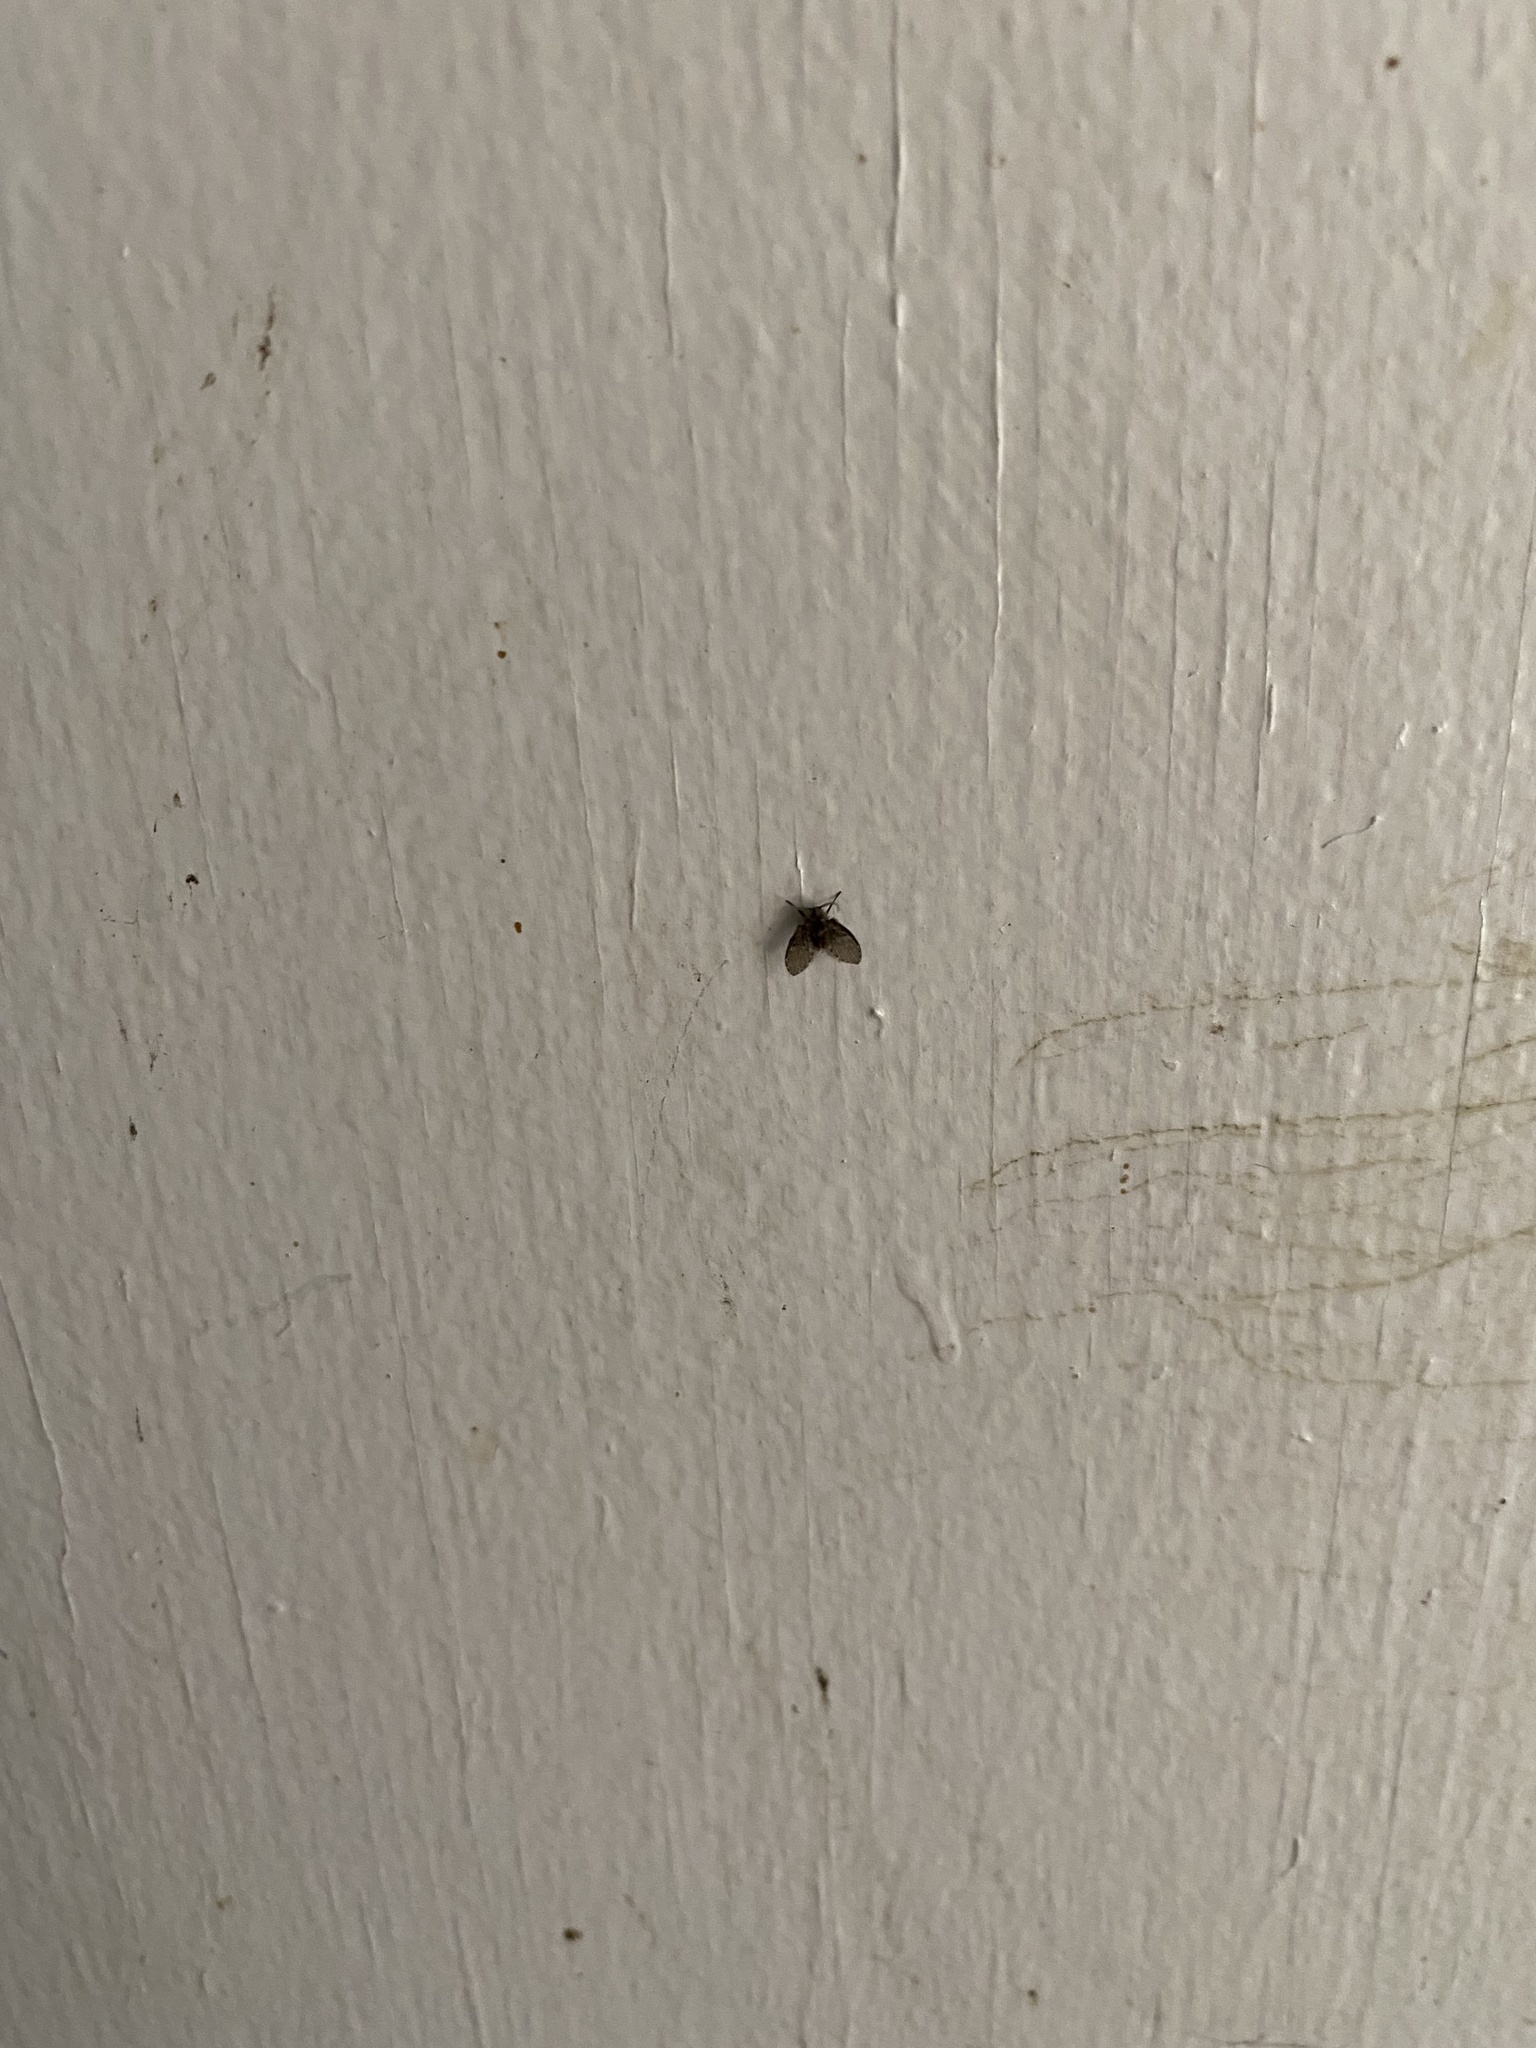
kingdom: Animalia
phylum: Arthropoda
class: Insecta
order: Diptera
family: Psychodidae
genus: Clogmia
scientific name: Clogmia albipunctatus
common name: White-spotted moth fly
